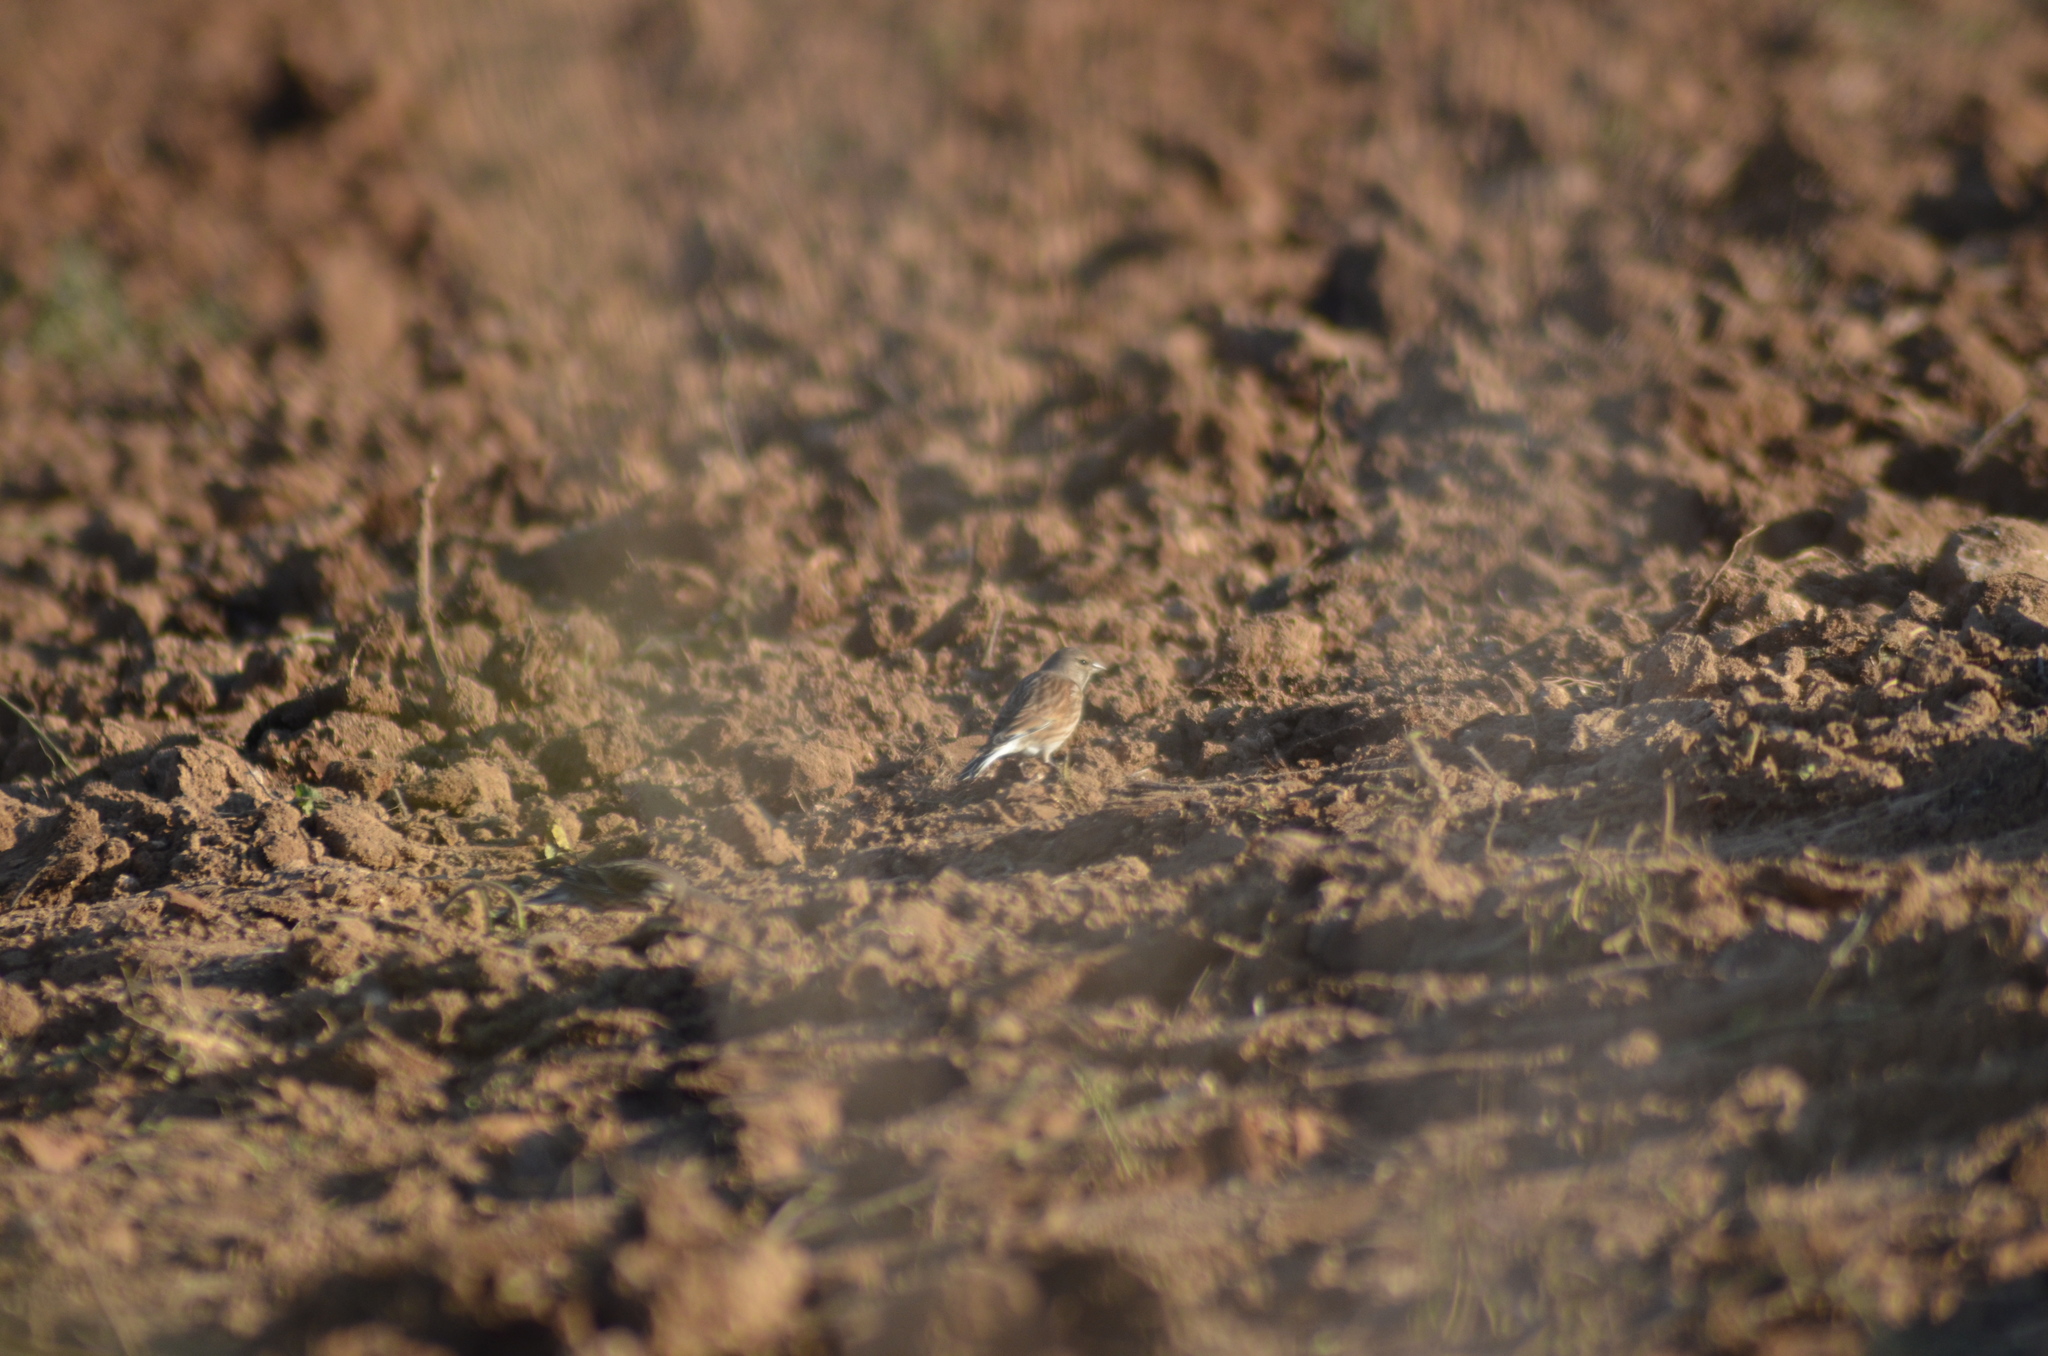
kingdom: Animalia
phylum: Chordata
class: Aves
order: Passeriformes
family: Fringillidae
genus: Linaria
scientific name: Linaria cannabina
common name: Common linnet
